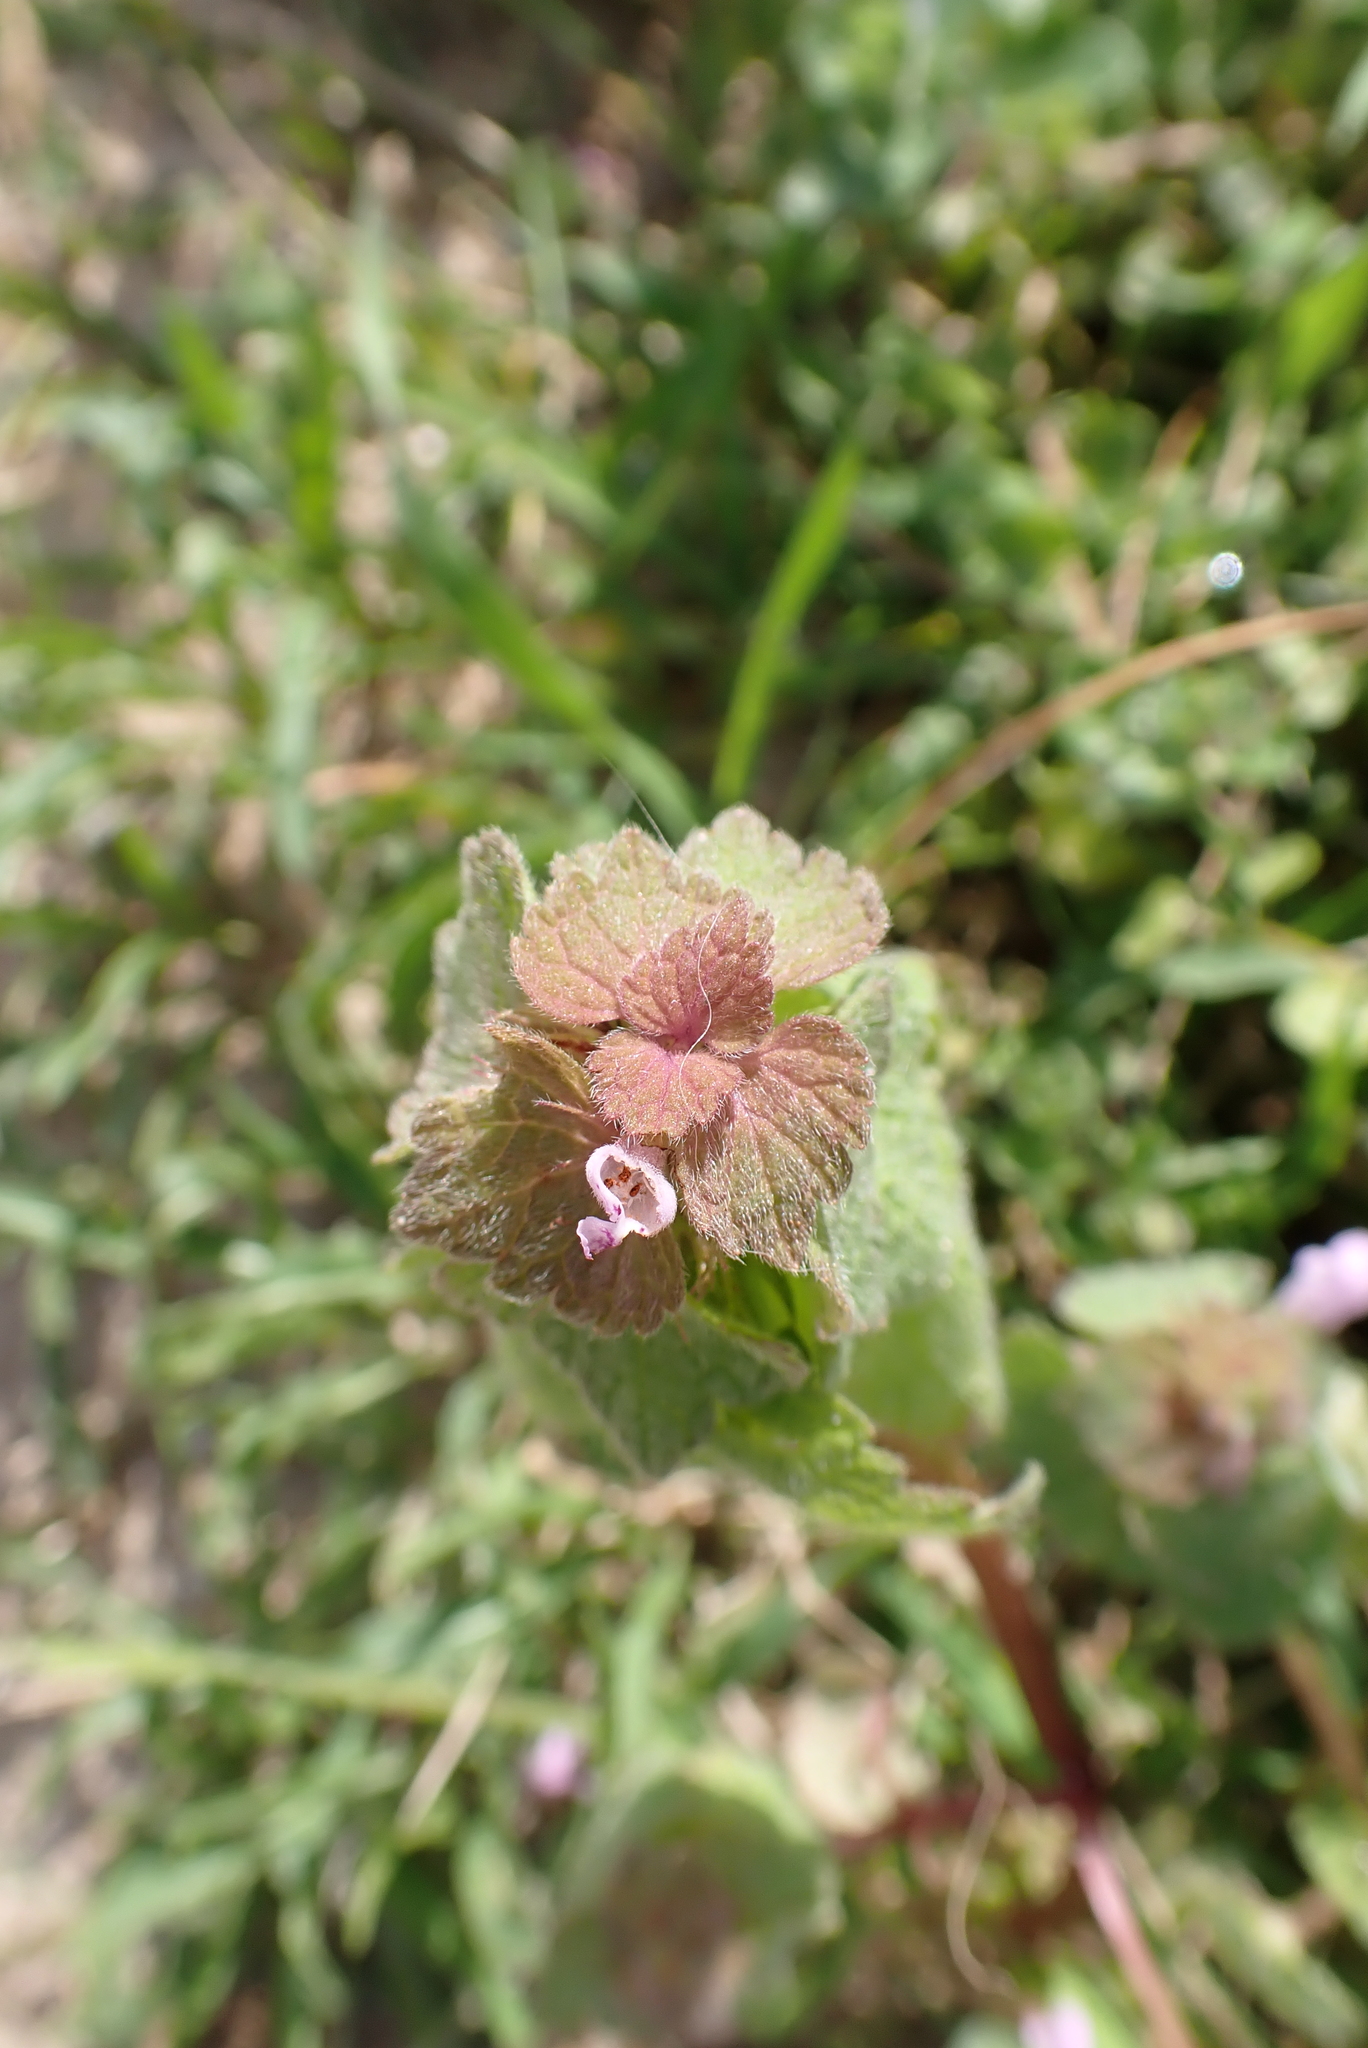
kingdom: Plantae
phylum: Tracheophyta
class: Magnoliopsida
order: Lamiales
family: Lamiaceae
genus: Lamium
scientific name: Lamium purpureum
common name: Red dead-nettle
